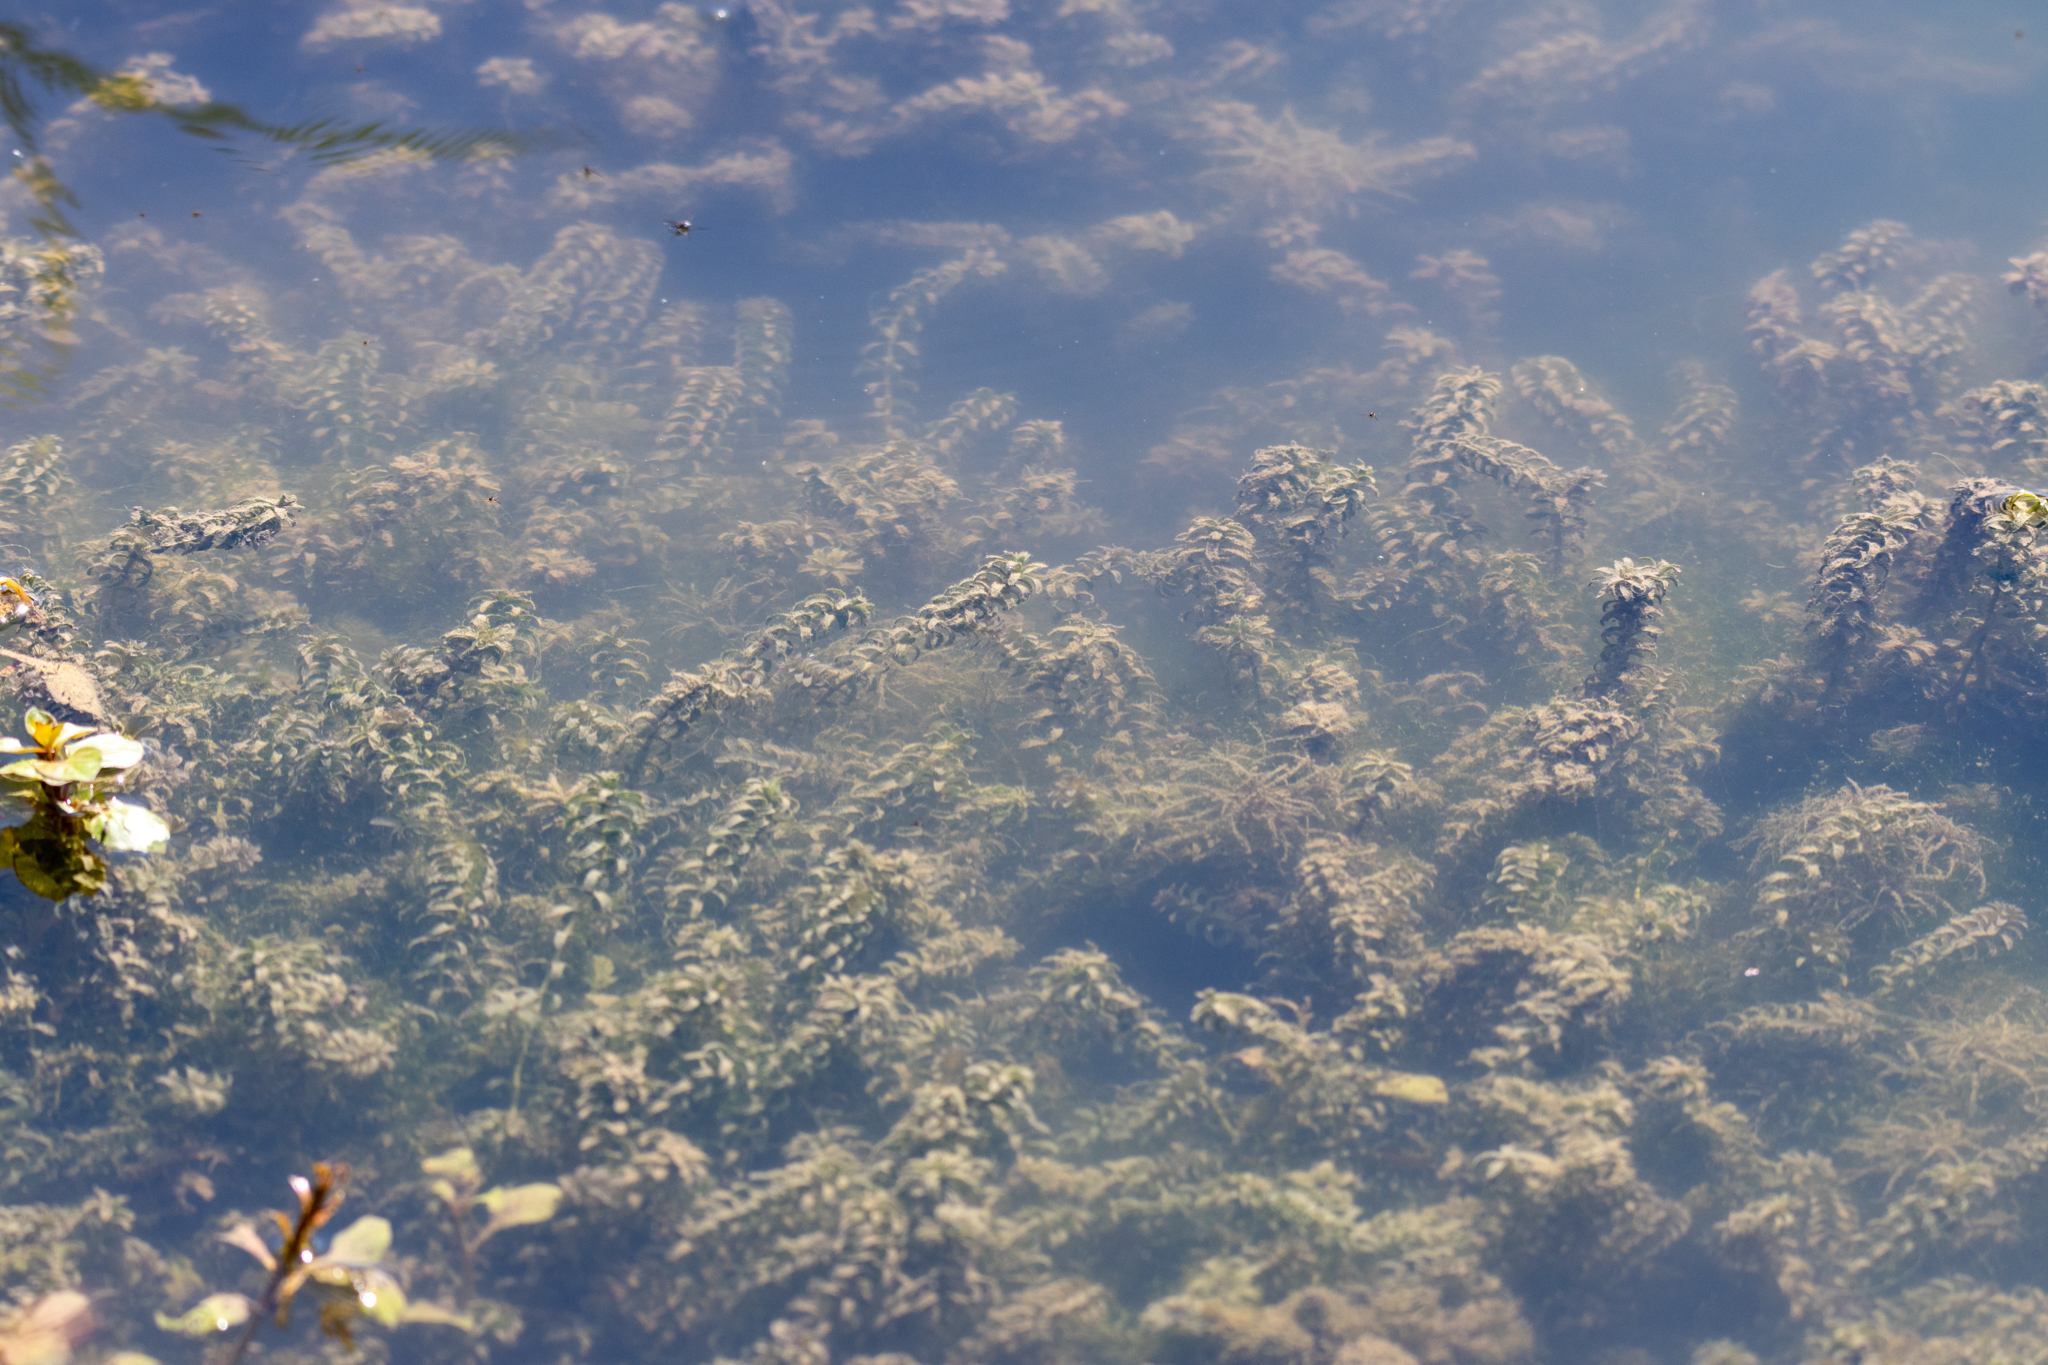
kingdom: Plantae
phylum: Tracheophyta
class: Liliopsida
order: Alismatales
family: Hydrocharitaceae
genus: Elodea
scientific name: Elodea canadensis
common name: Canadian waterweed
